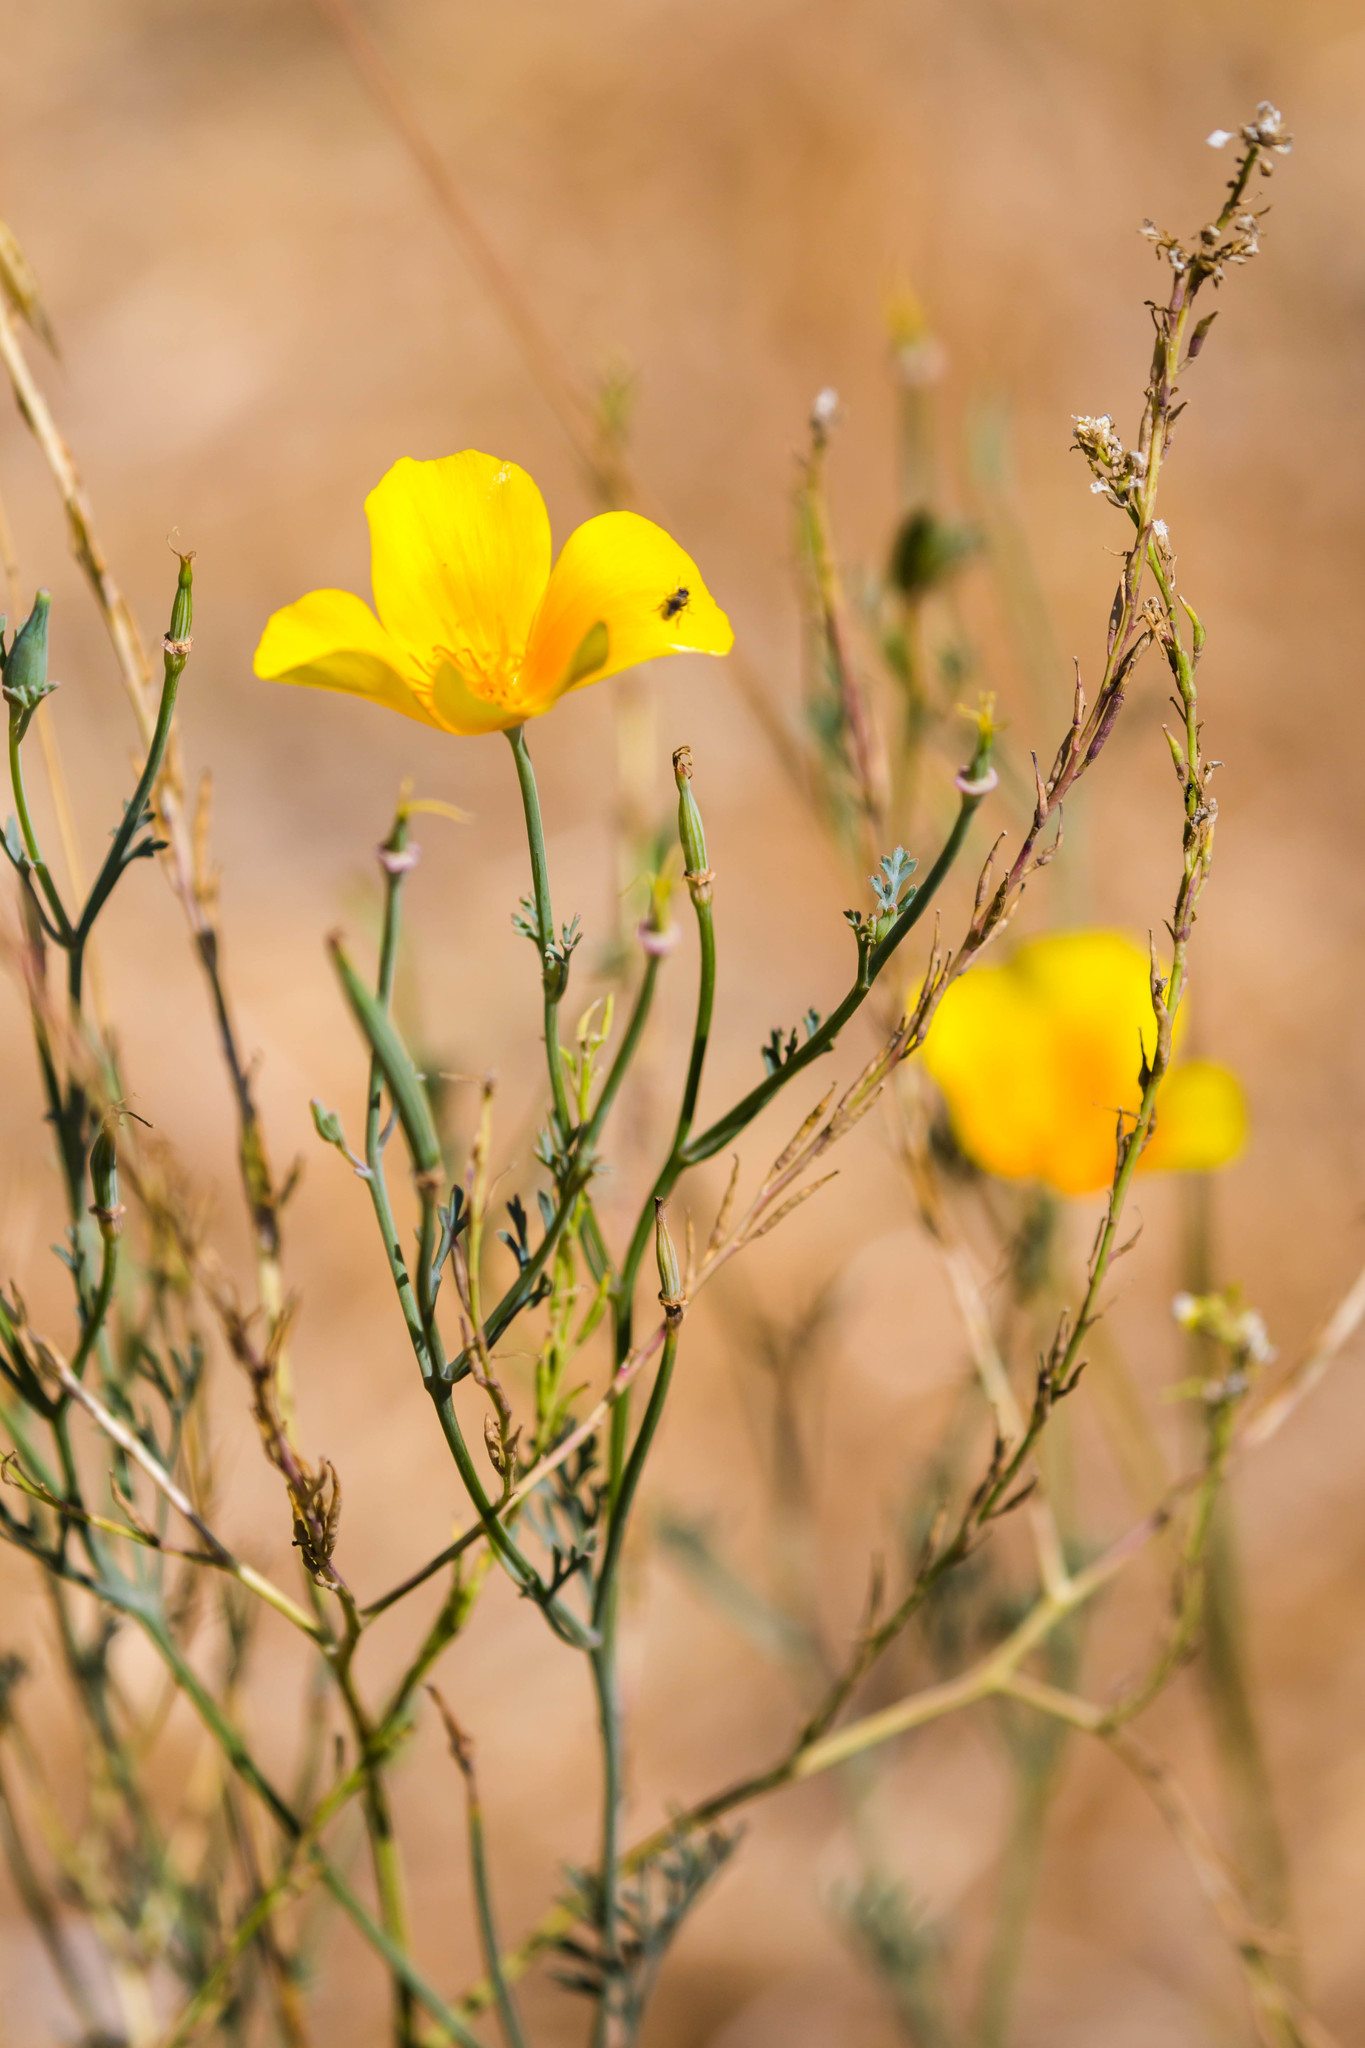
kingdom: Plantae
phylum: Tracheophyta
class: Magnoliopsida
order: Ranunculales
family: Papaveraceae
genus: Eschscholzia
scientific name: Eschscholzia californica
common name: California poppy
